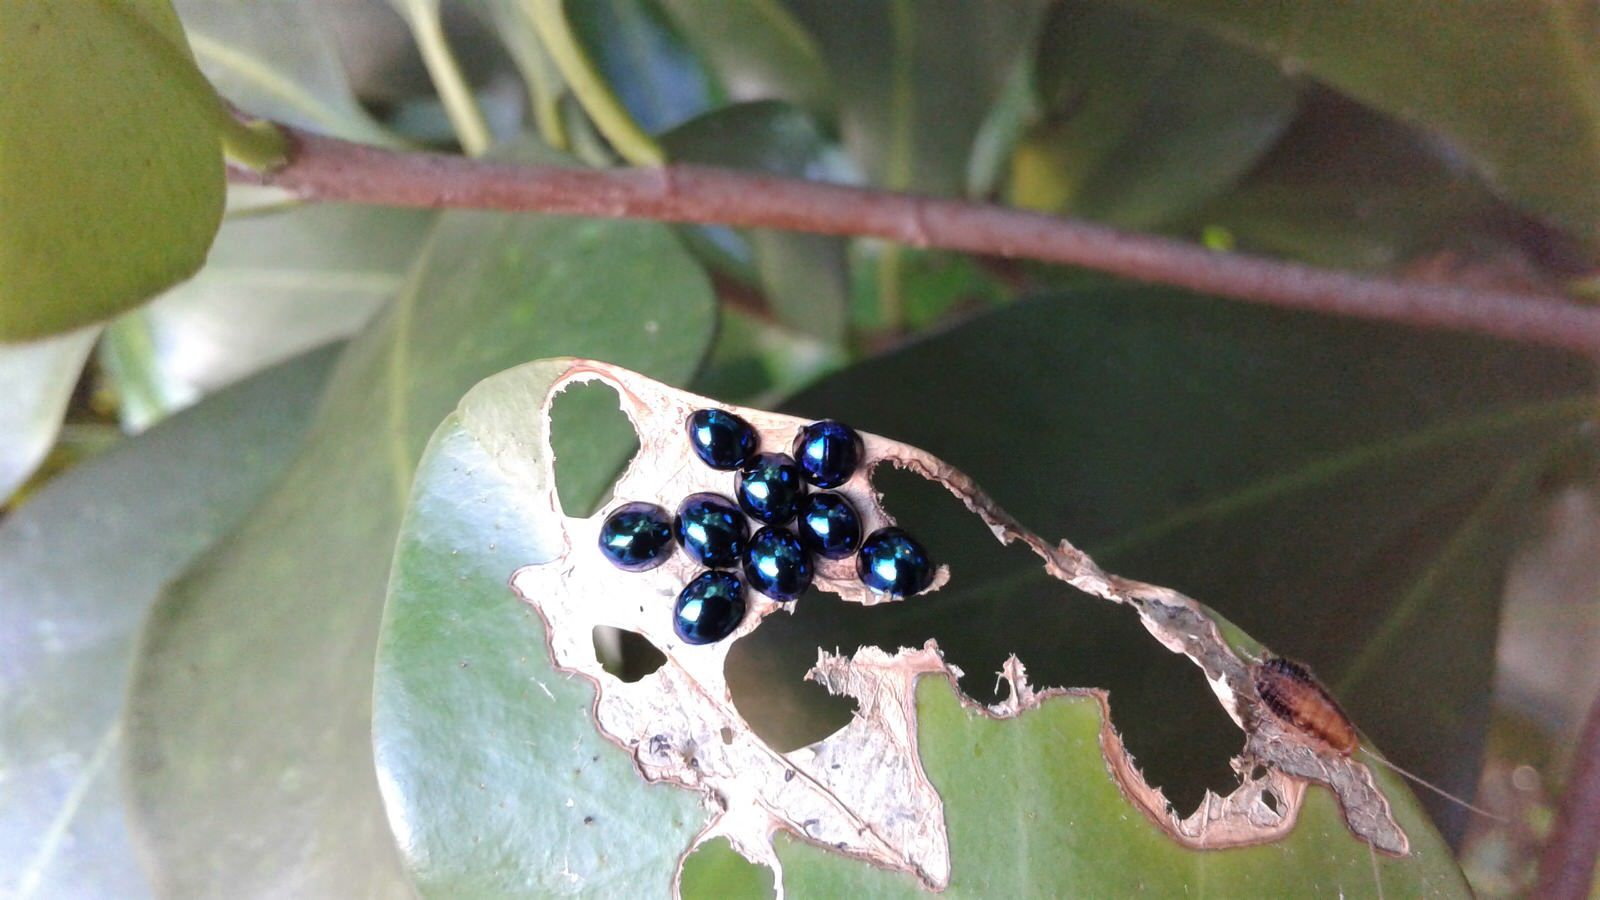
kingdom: Animalia
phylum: Arthropoda
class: Insecta
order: Coleoptera
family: Coccinellidae
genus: Halmus
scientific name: Halmus chalybeus
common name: Steel blue ladybird beetle
